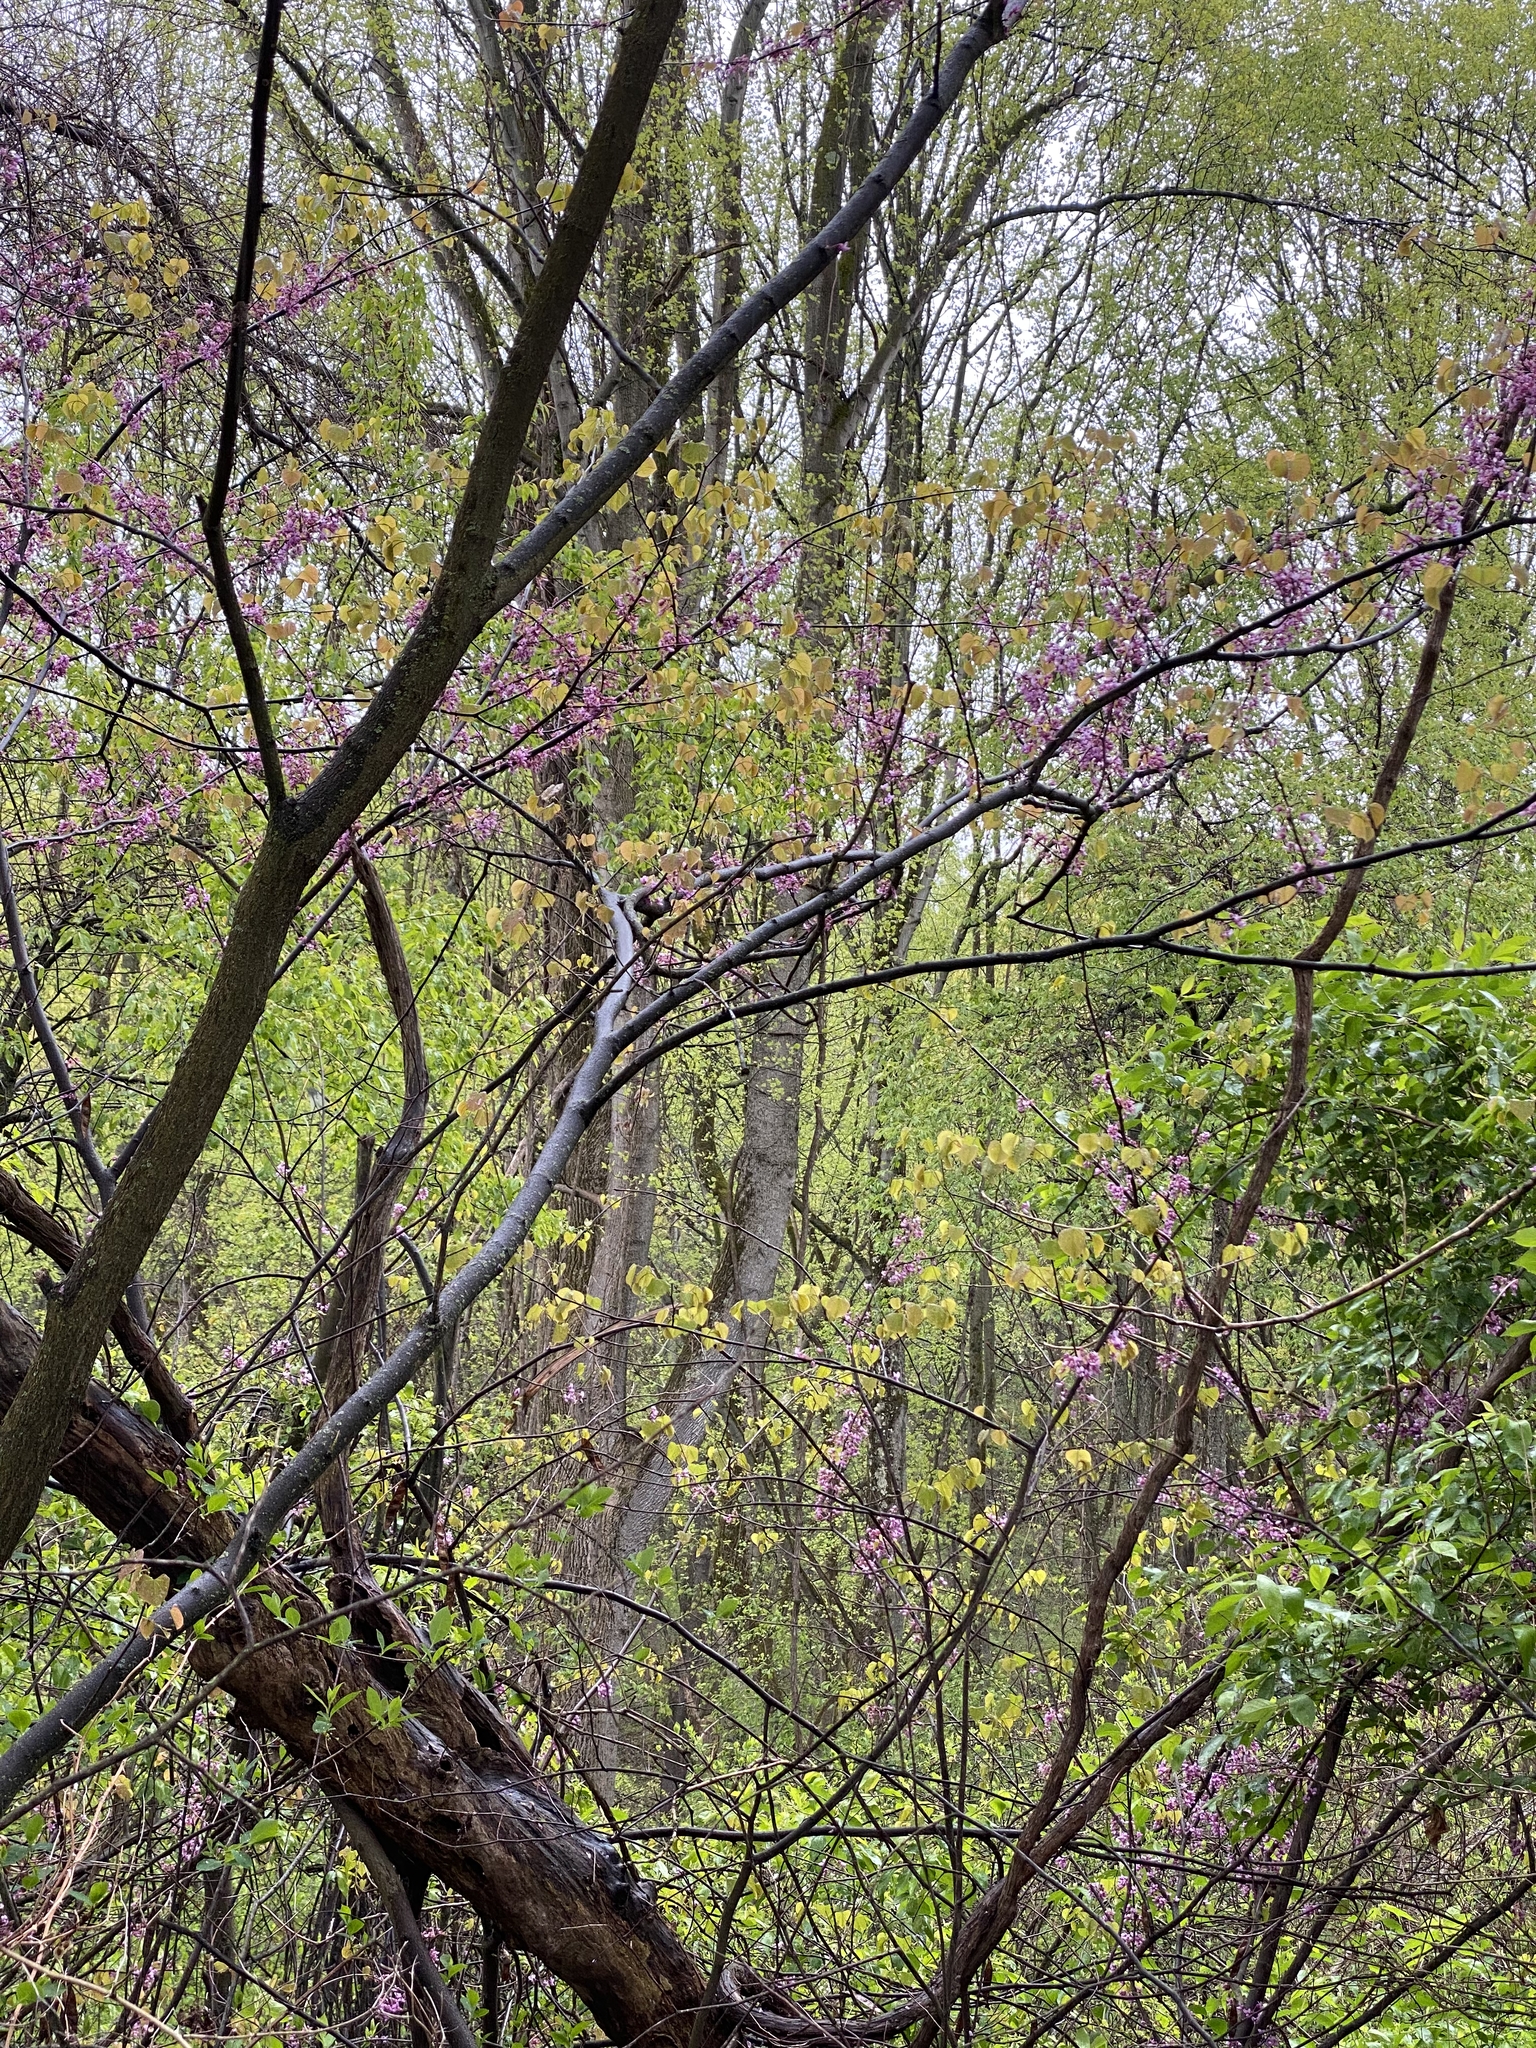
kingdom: Plantae
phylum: Tracheophyta
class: Magnoliopsida
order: Fabales
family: Fabaceae
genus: Cercis
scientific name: Cercis canadensis
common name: Eastern redbud
